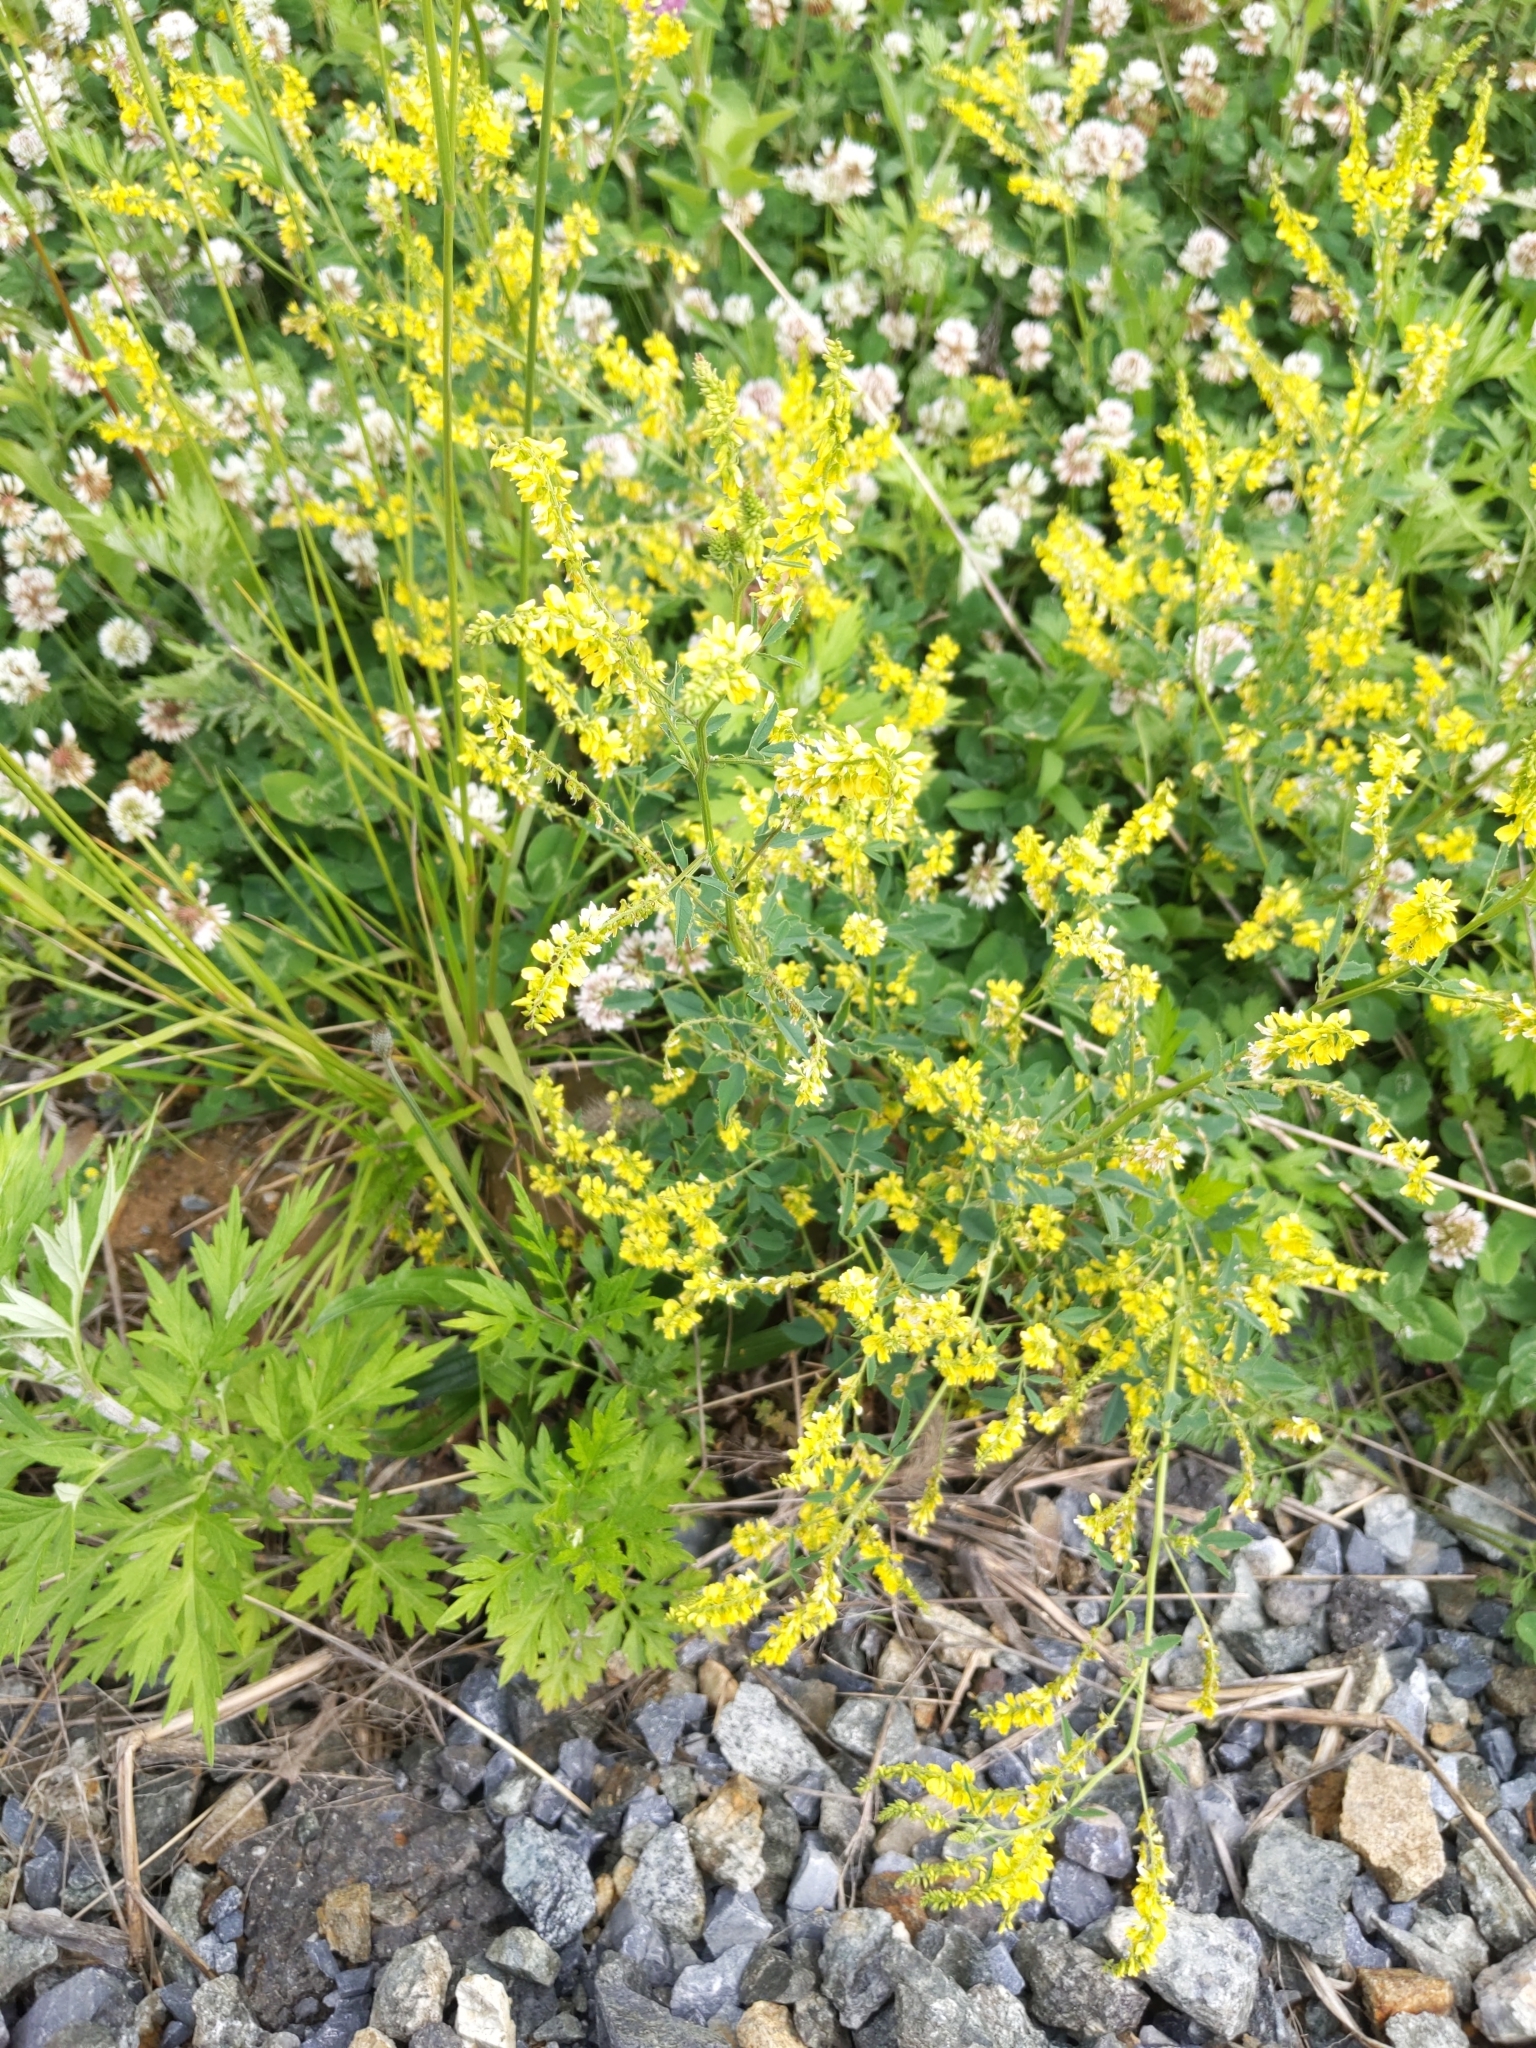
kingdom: Plantae
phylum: Tracheophyta
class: Magnoliopsida
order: Fabales
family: Fabaceae
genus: Melilotus
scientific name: Melilotus officinalis
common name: Sweetclover
